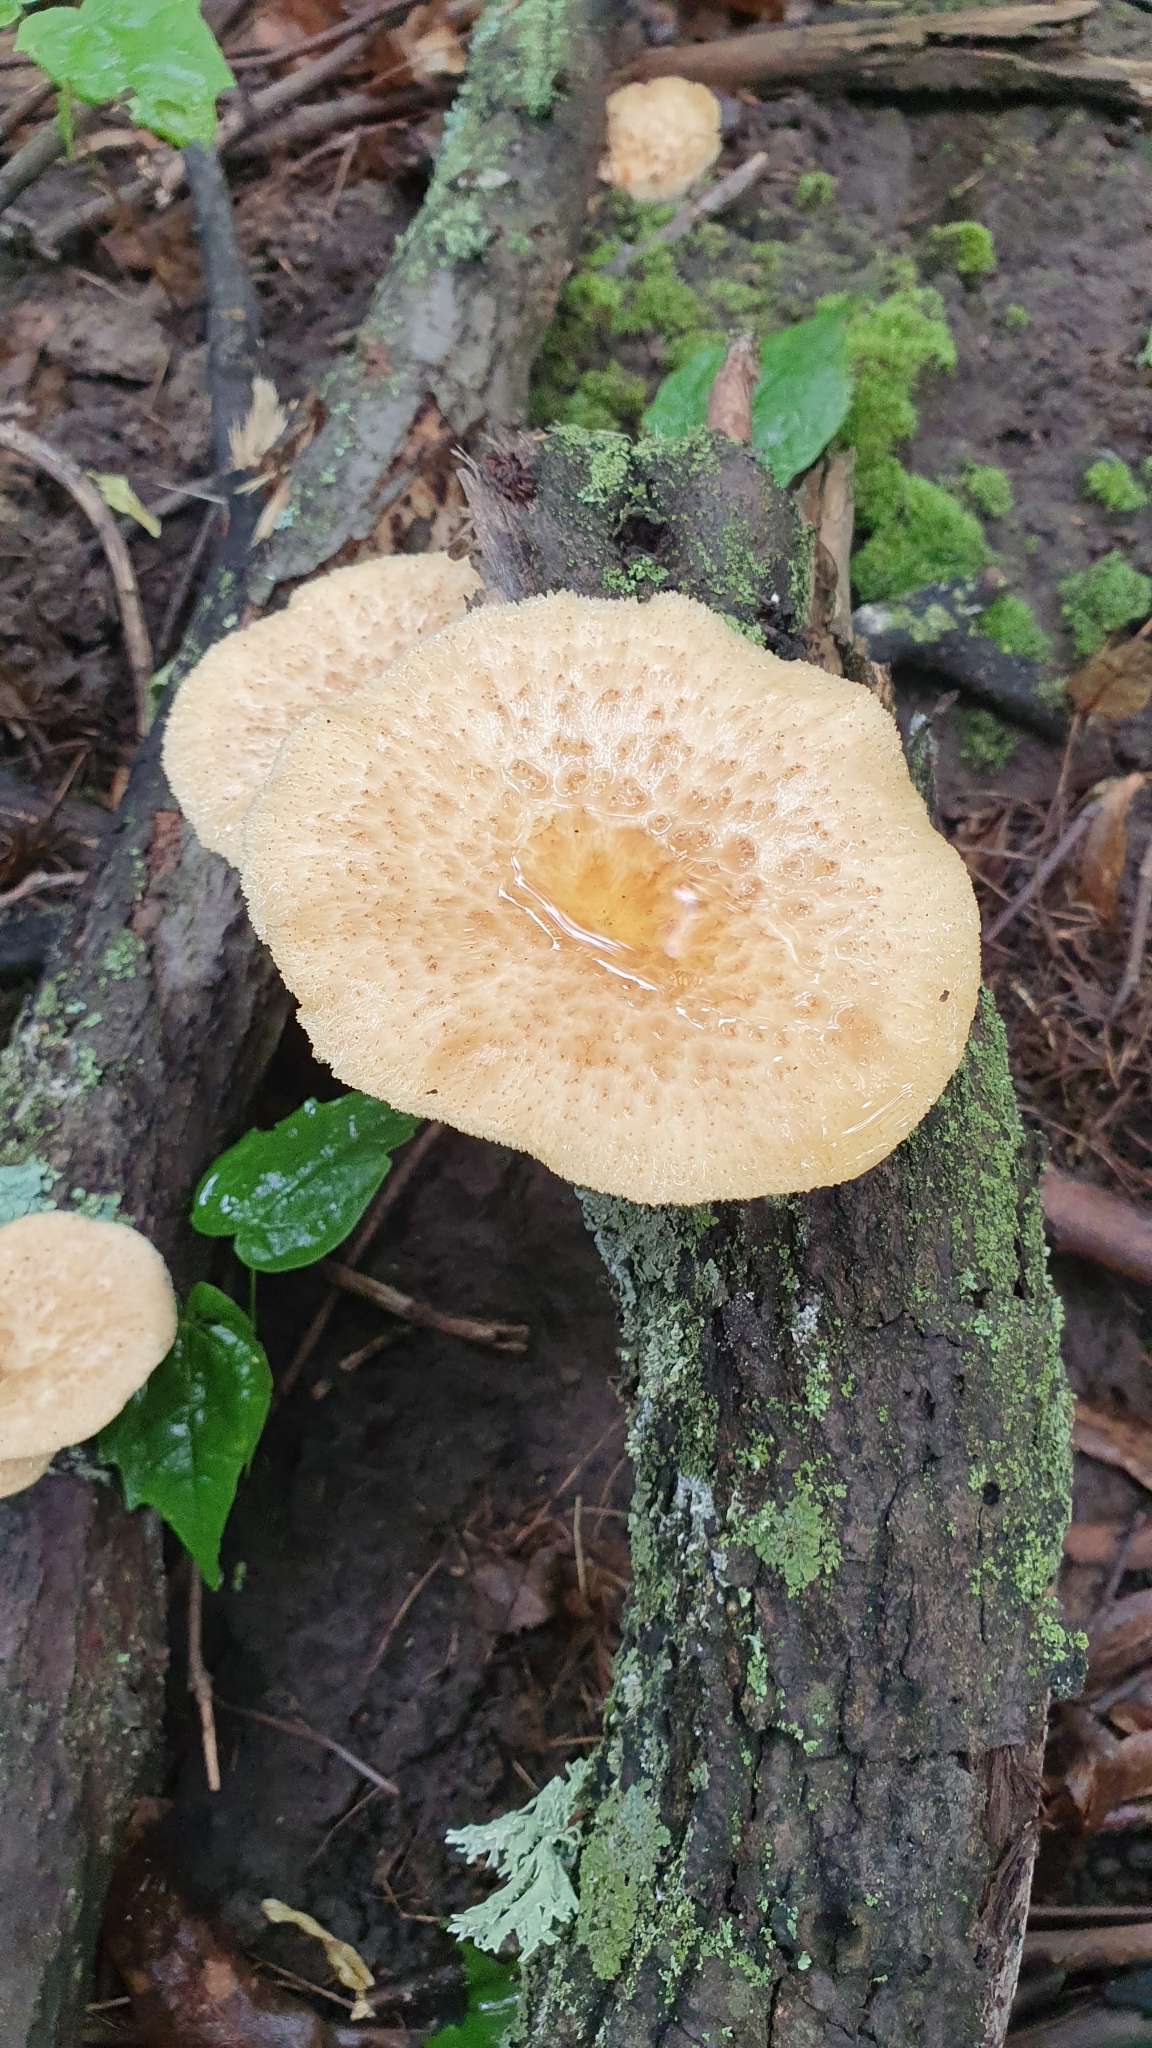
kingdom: Fungi
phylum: Basidiomycota
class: Agaricomycetes
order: Polyporales
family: Polyporaceae
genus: Polyporus
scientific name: Polyporus tuberaster
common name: Tuberous polypore
